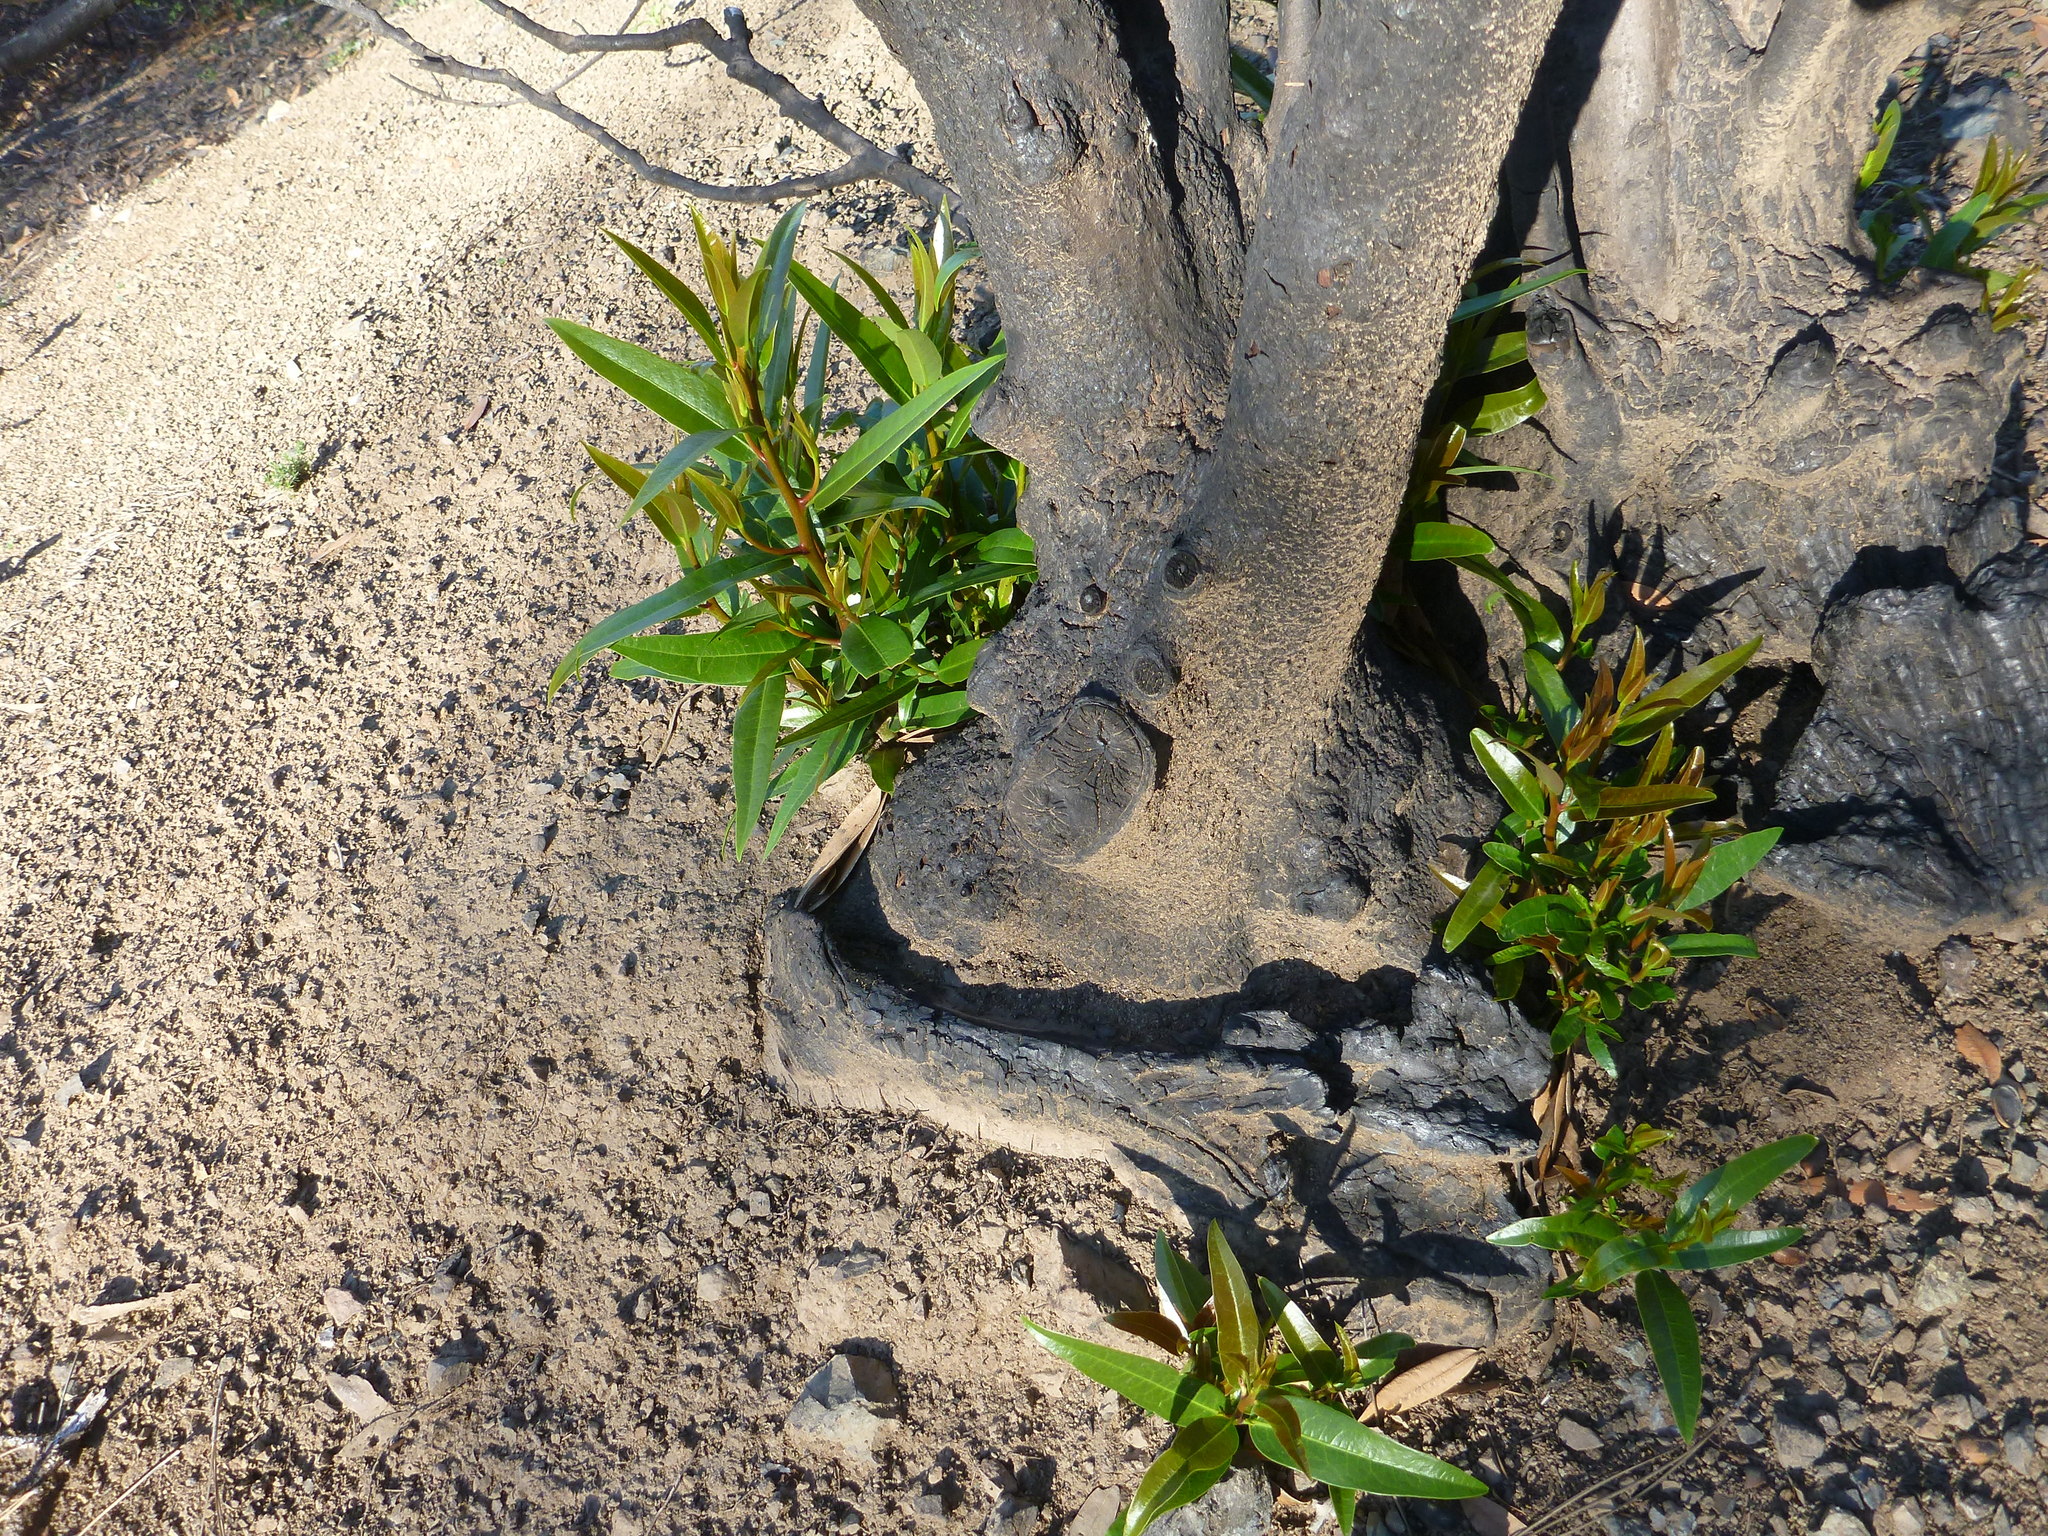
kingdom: Plantae
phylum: Tracheophyta
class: Magnoliopsida
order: Laurales
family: Lauraceae
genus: Umbellularia
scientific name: Umbellularia californica
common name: California bay
